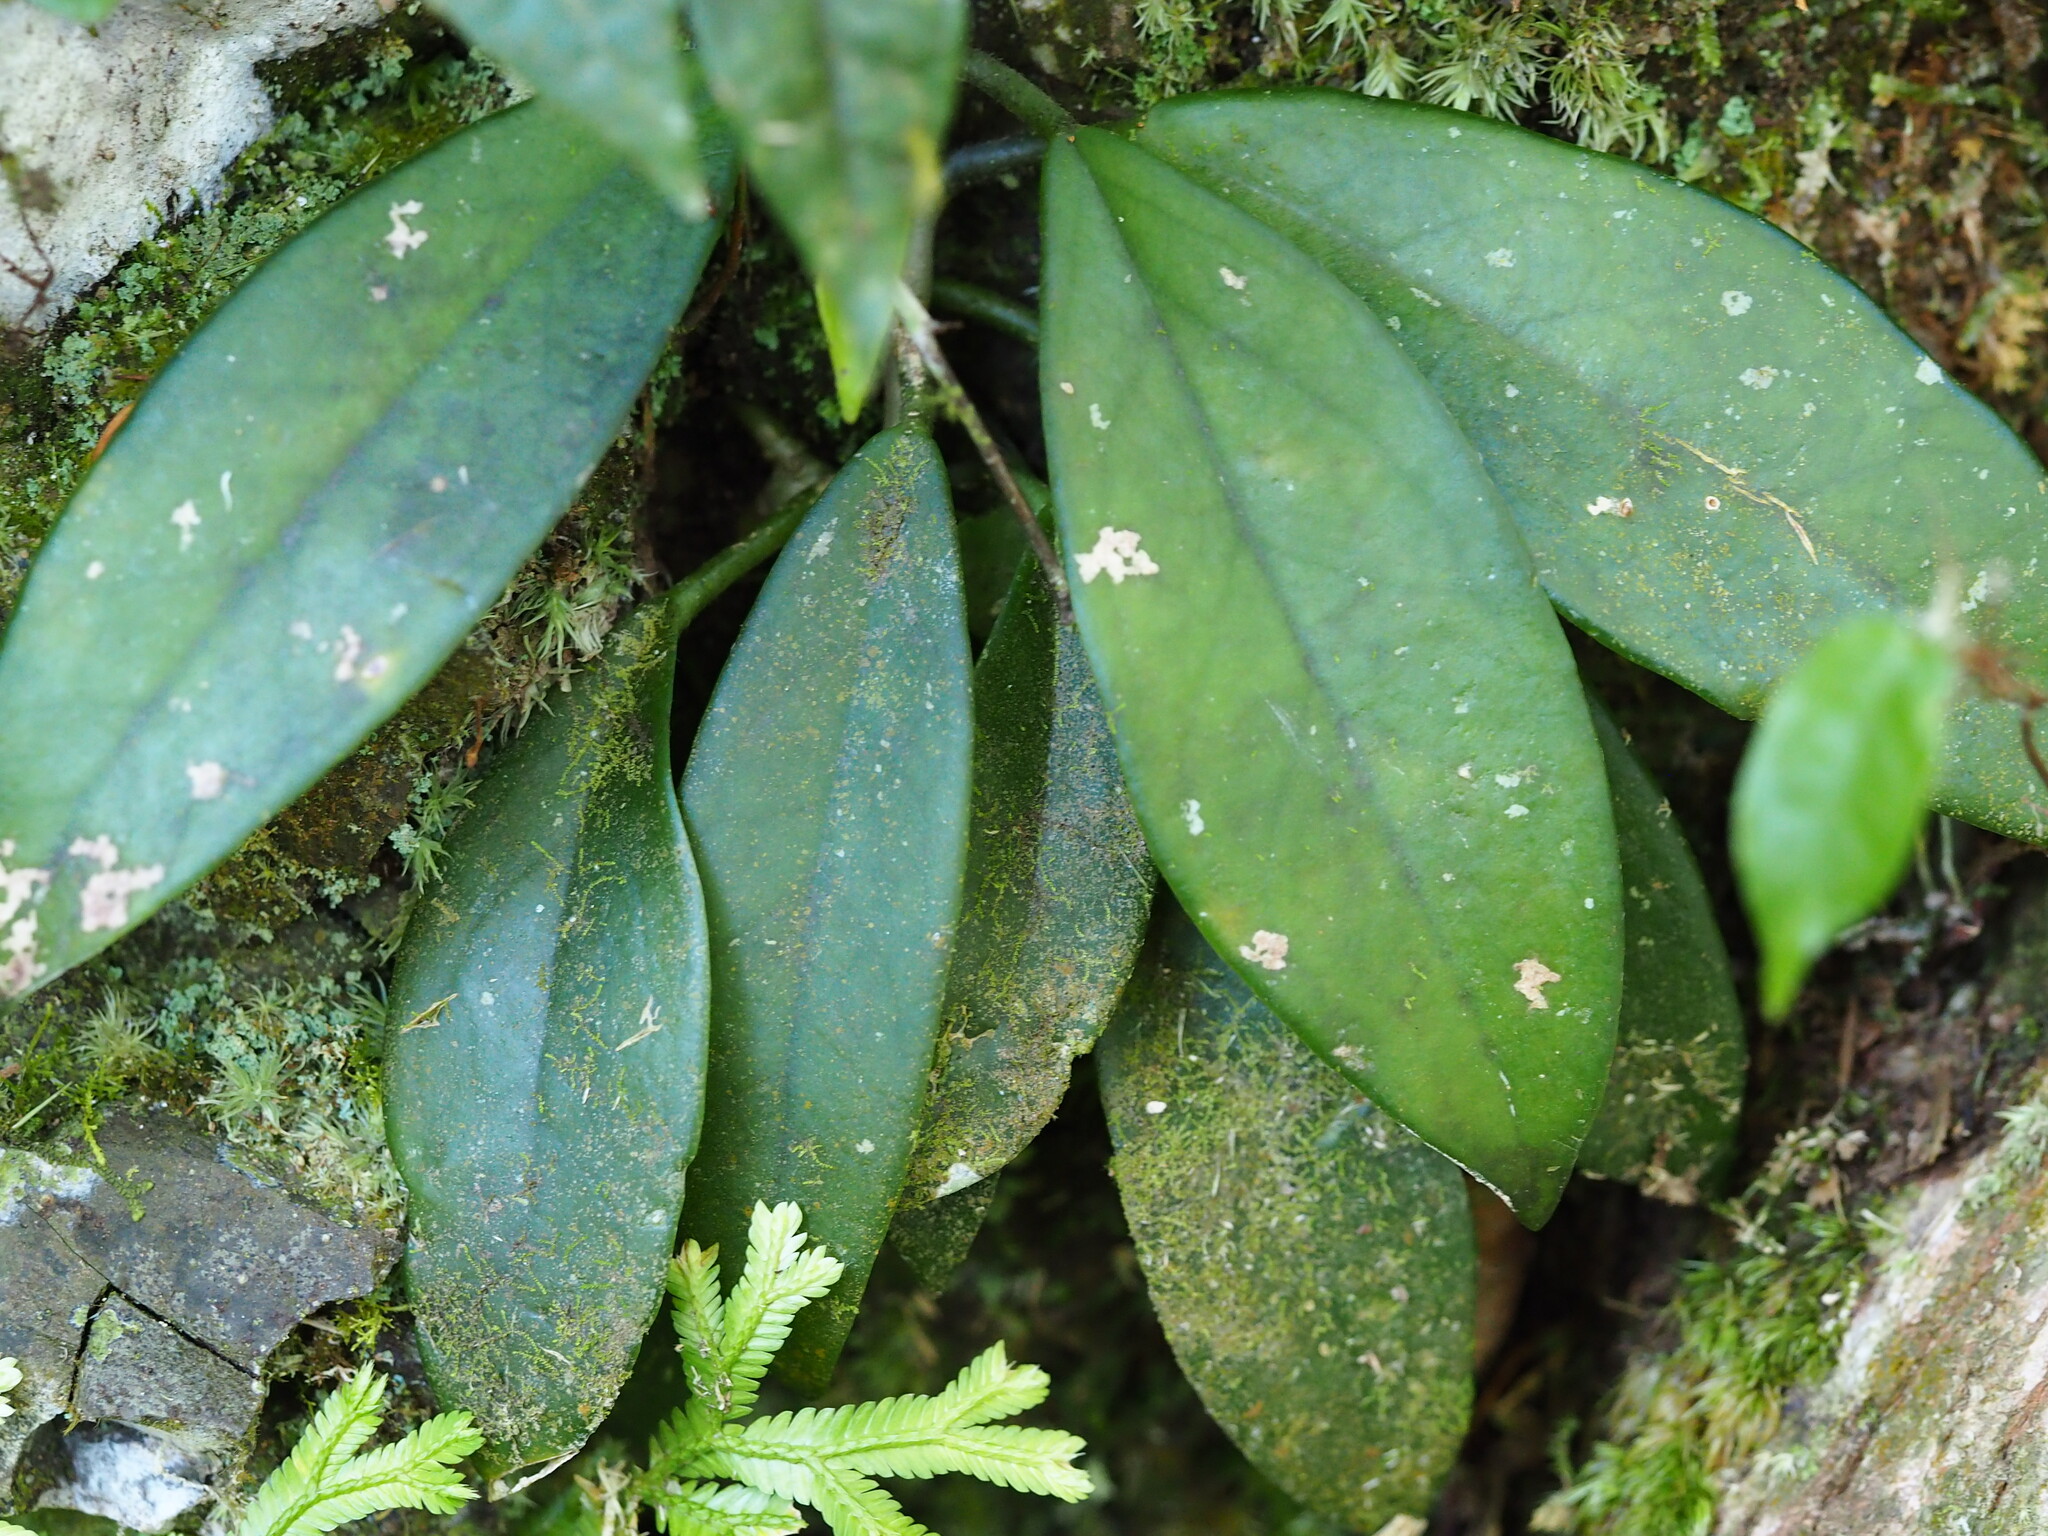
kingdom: Plantae
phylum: Tracheophyta
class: Magnoliopsida
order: Gentianales
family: Apocynaceae
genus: Hoya
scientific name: Hoya carnosa
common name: Honeyplant
